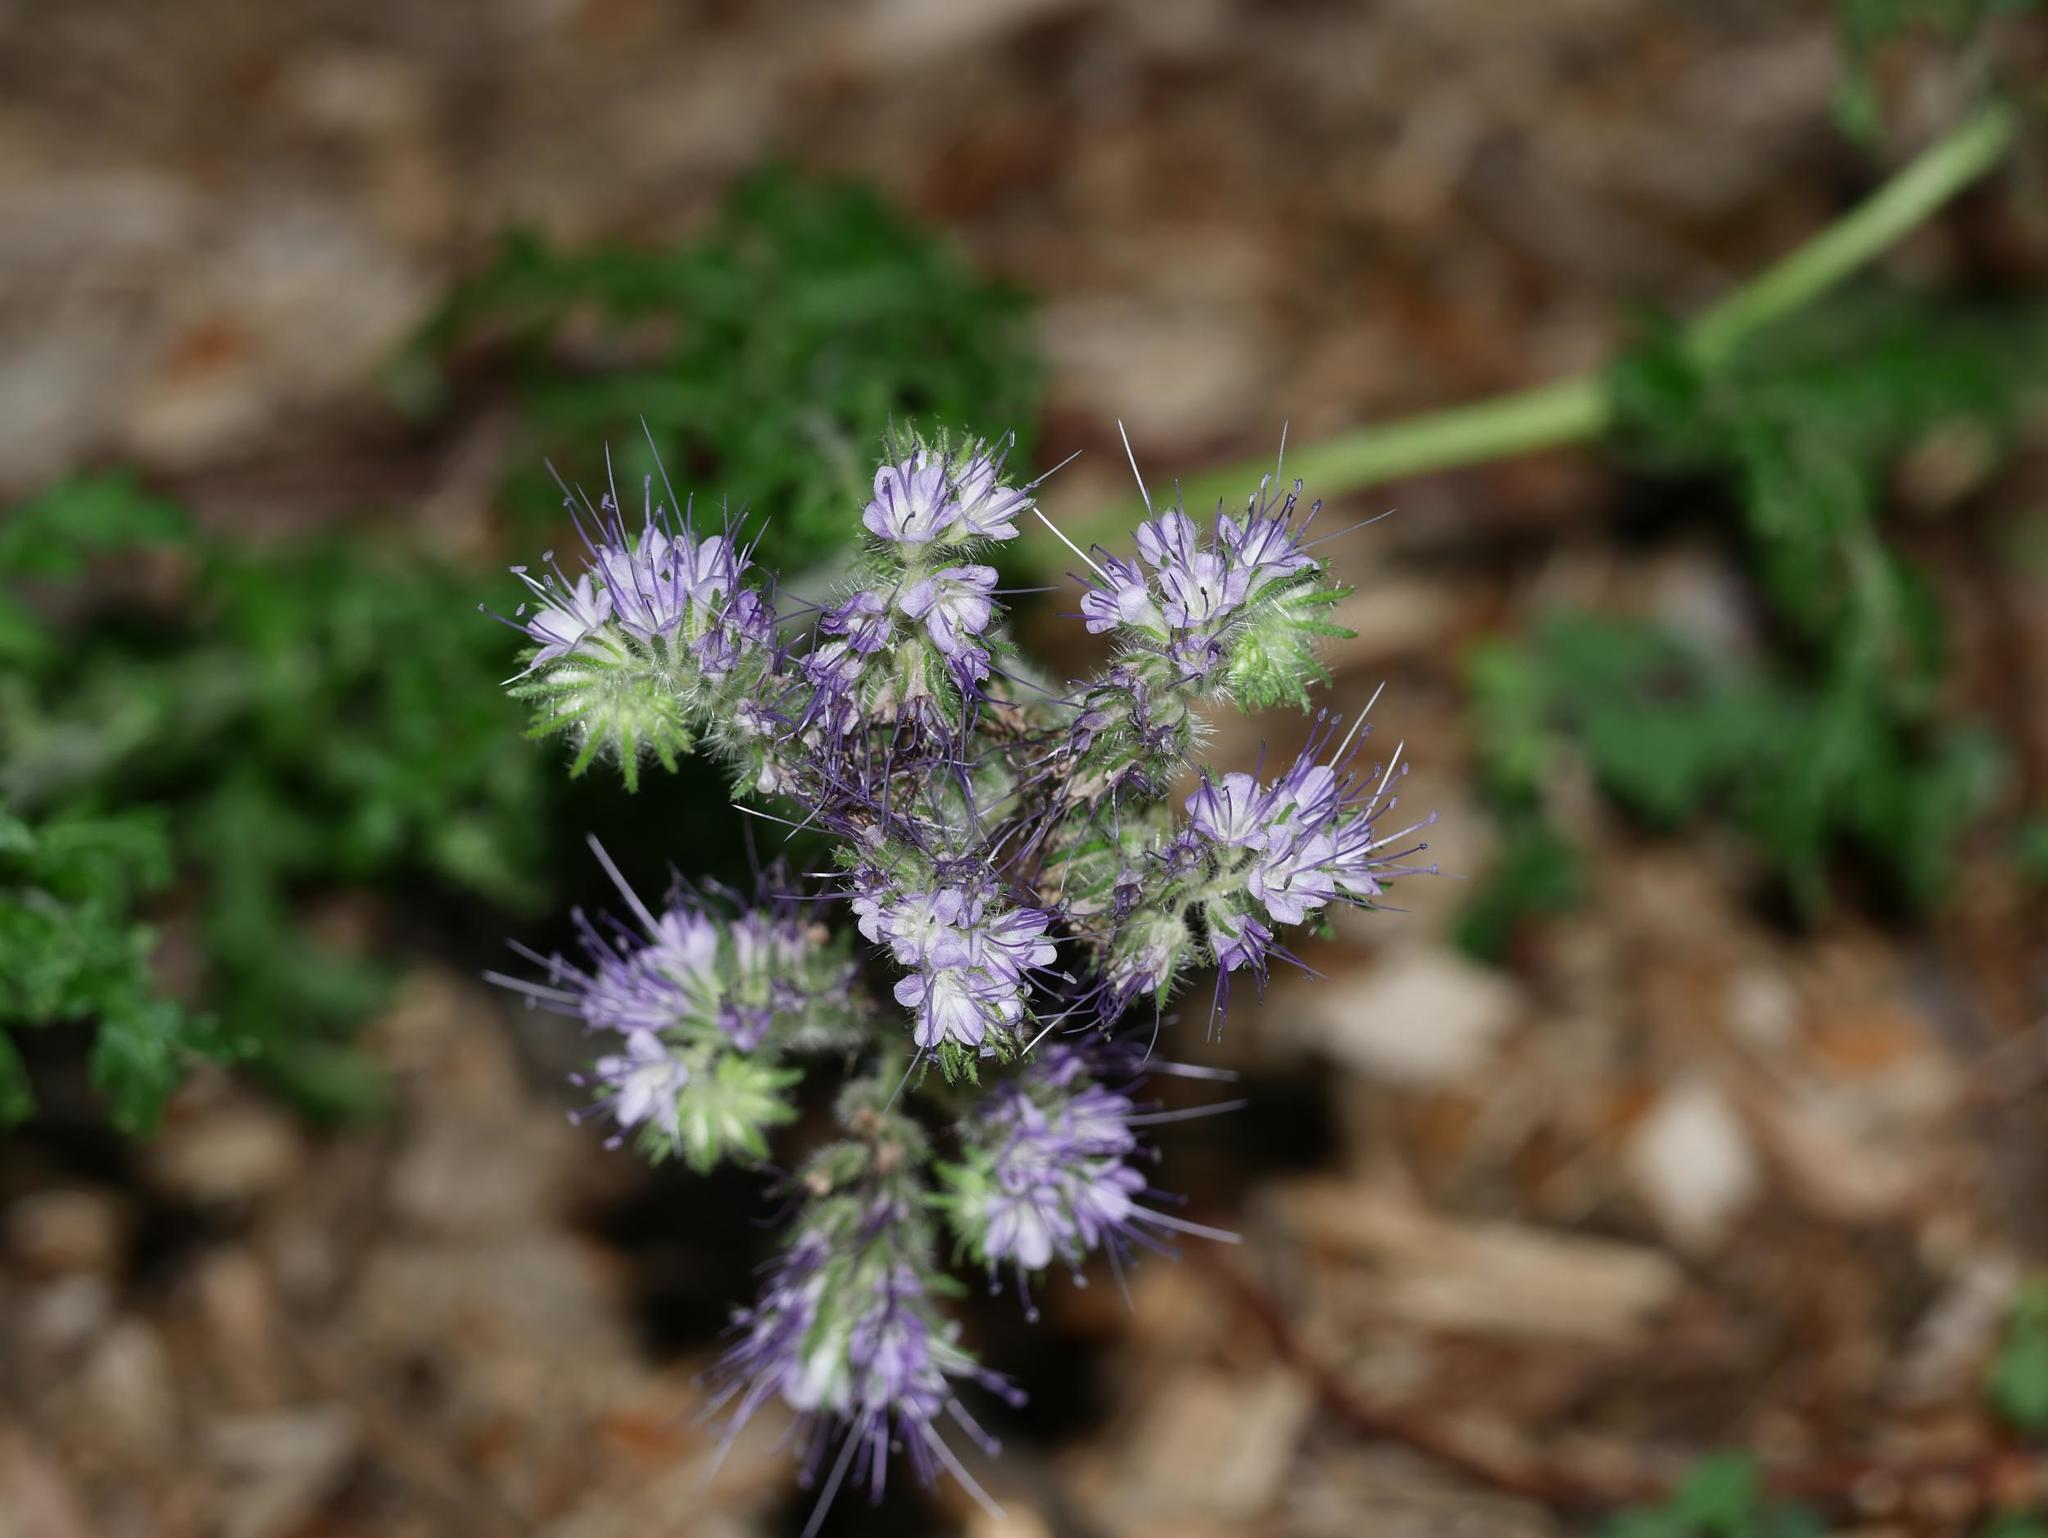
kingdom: Plantae
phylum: Tracheophyta
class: Magnoliopsida
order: Boraginales
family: Hydrophyllaceae
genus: Phacelia
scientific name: Phacelia tanacetifolia
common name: Phacelia
